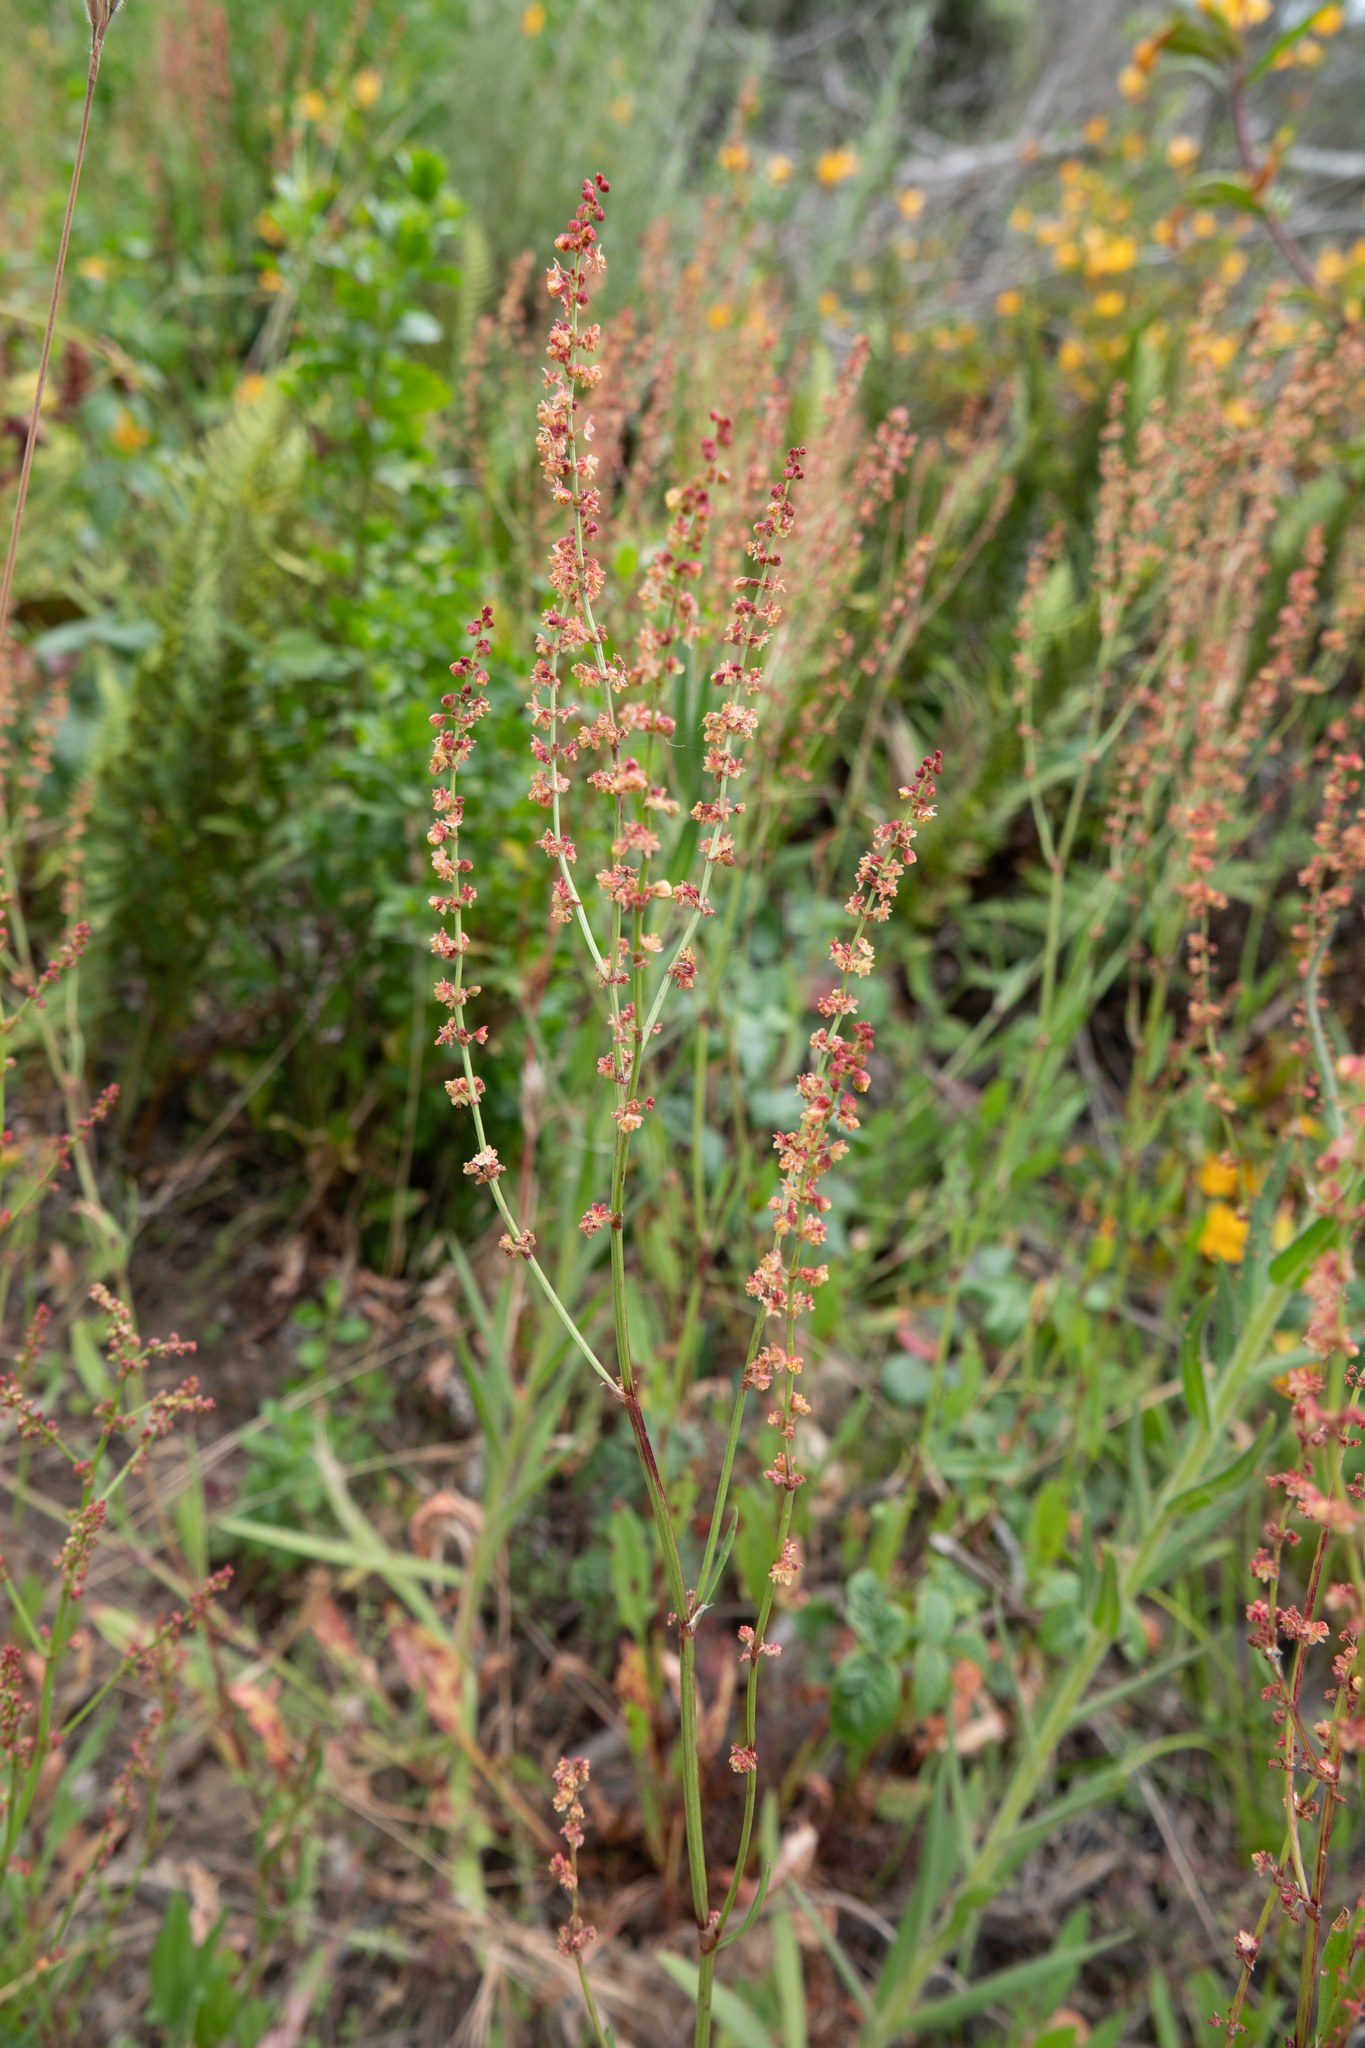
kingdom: Plantae
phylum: Tracheophyta
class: Magnoliopsida
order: Caryophyllales
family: Polygonaceae
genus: Rumex
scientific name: Rumex acetosella
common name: Common sheep sorrel
